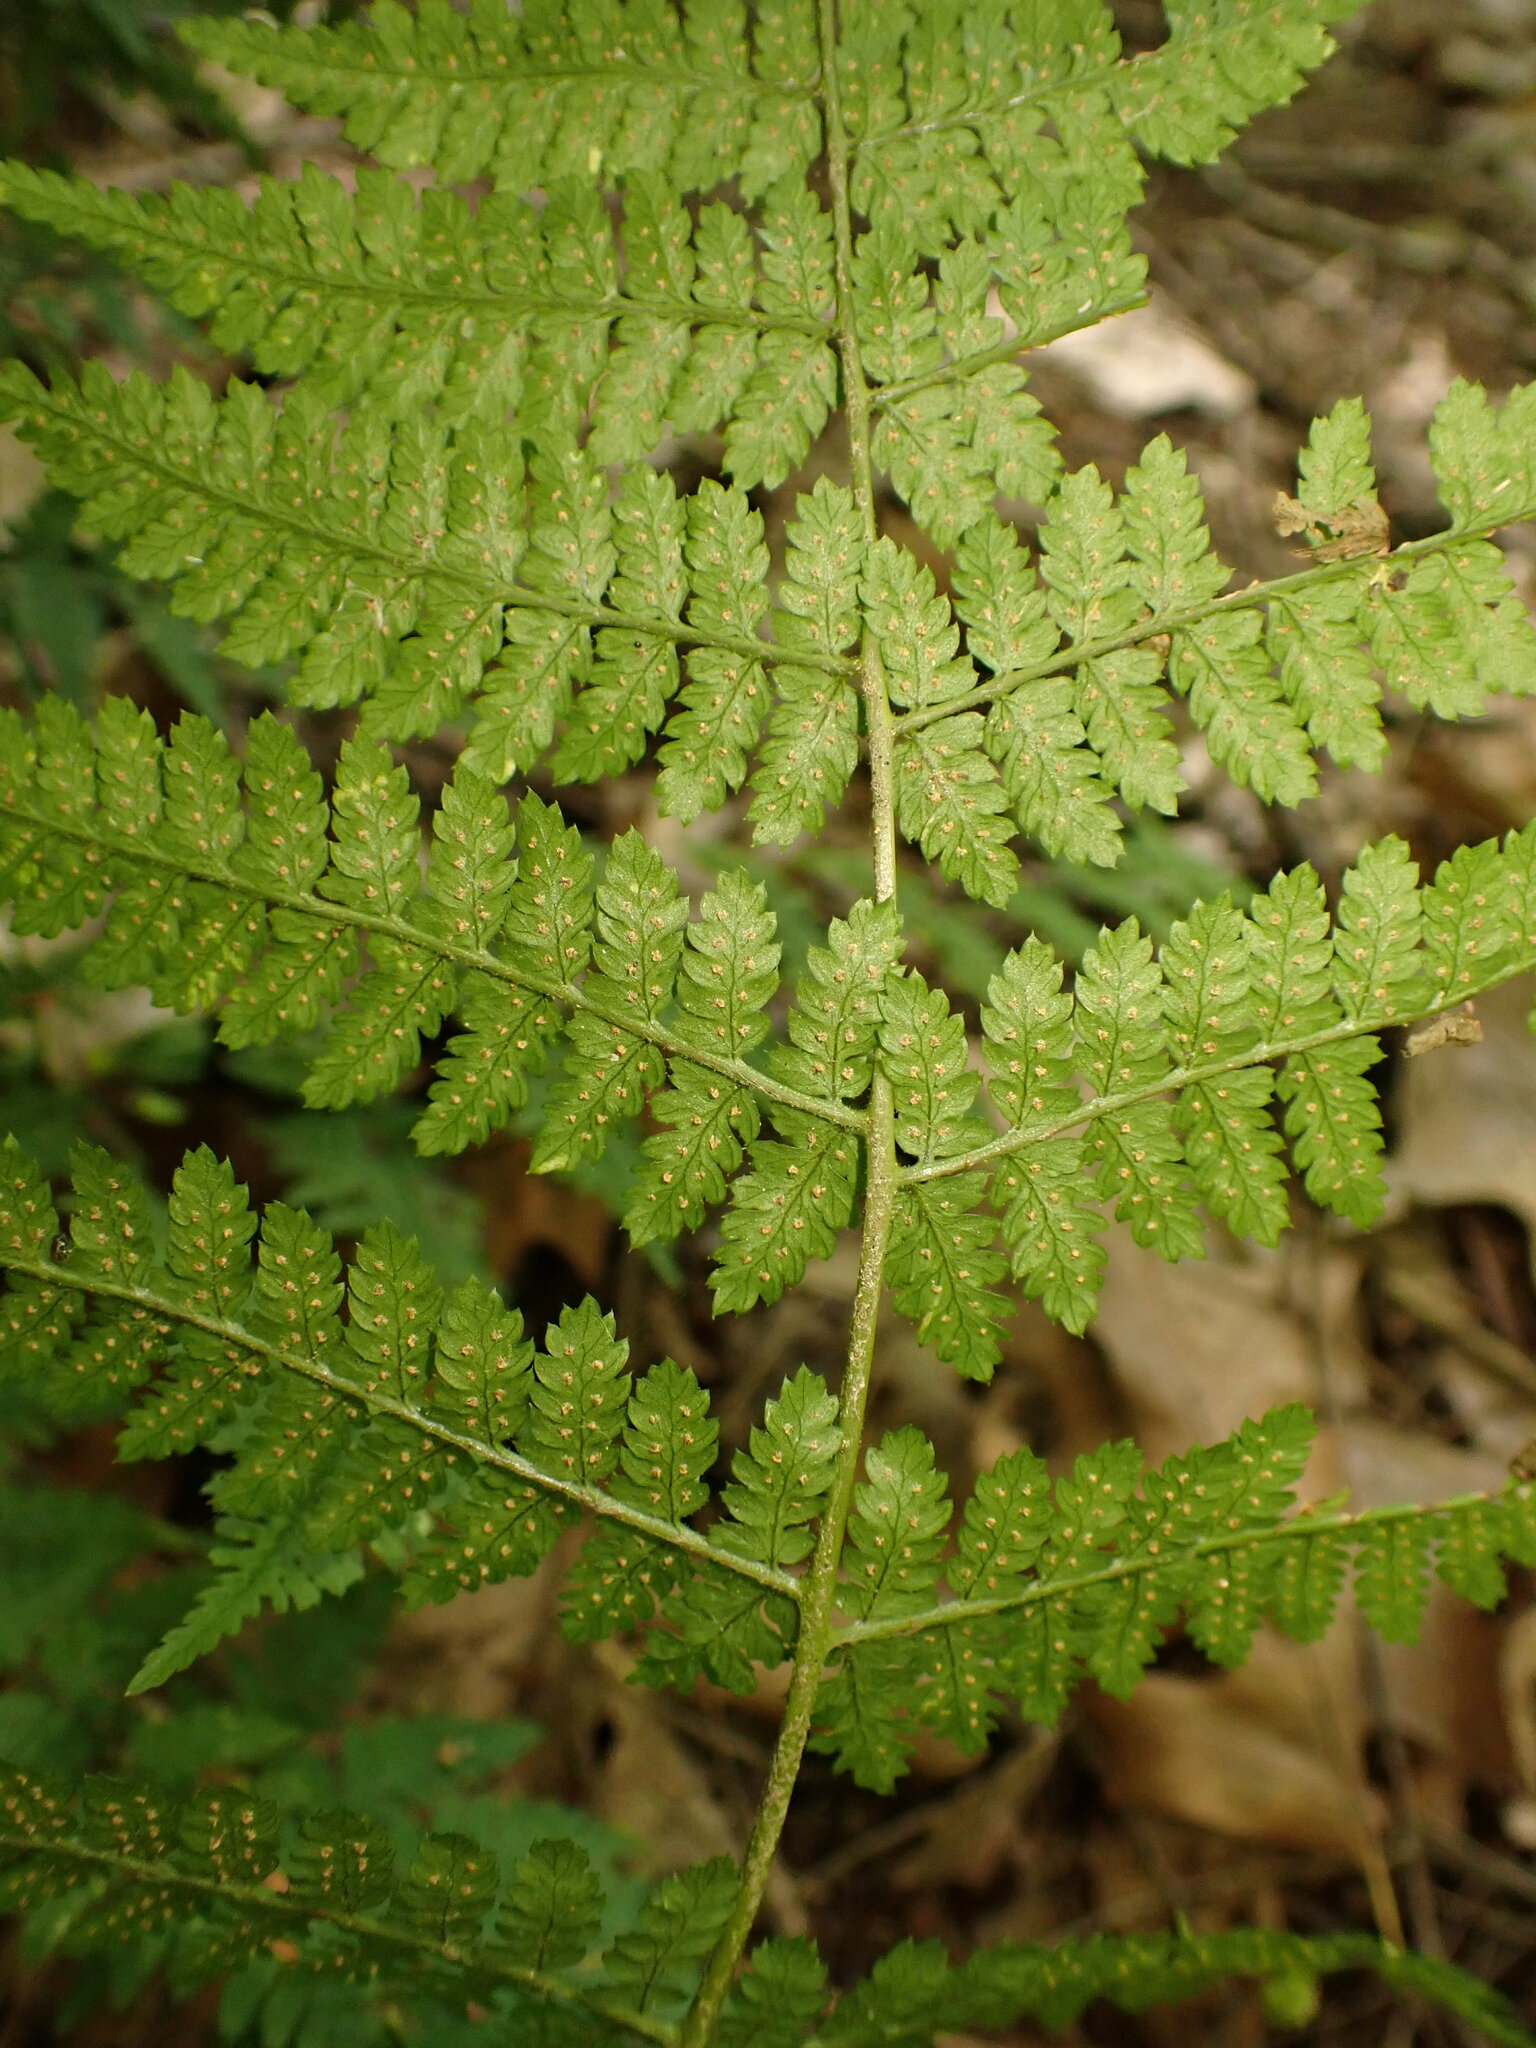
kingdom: Plantae
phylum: Tracheophyta
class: Polypodiopsida
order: Polypodiales
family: Dryopteridaceae
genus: Dryopteris
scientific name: Dryopteris intermedia
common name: Evergreen wood fern
